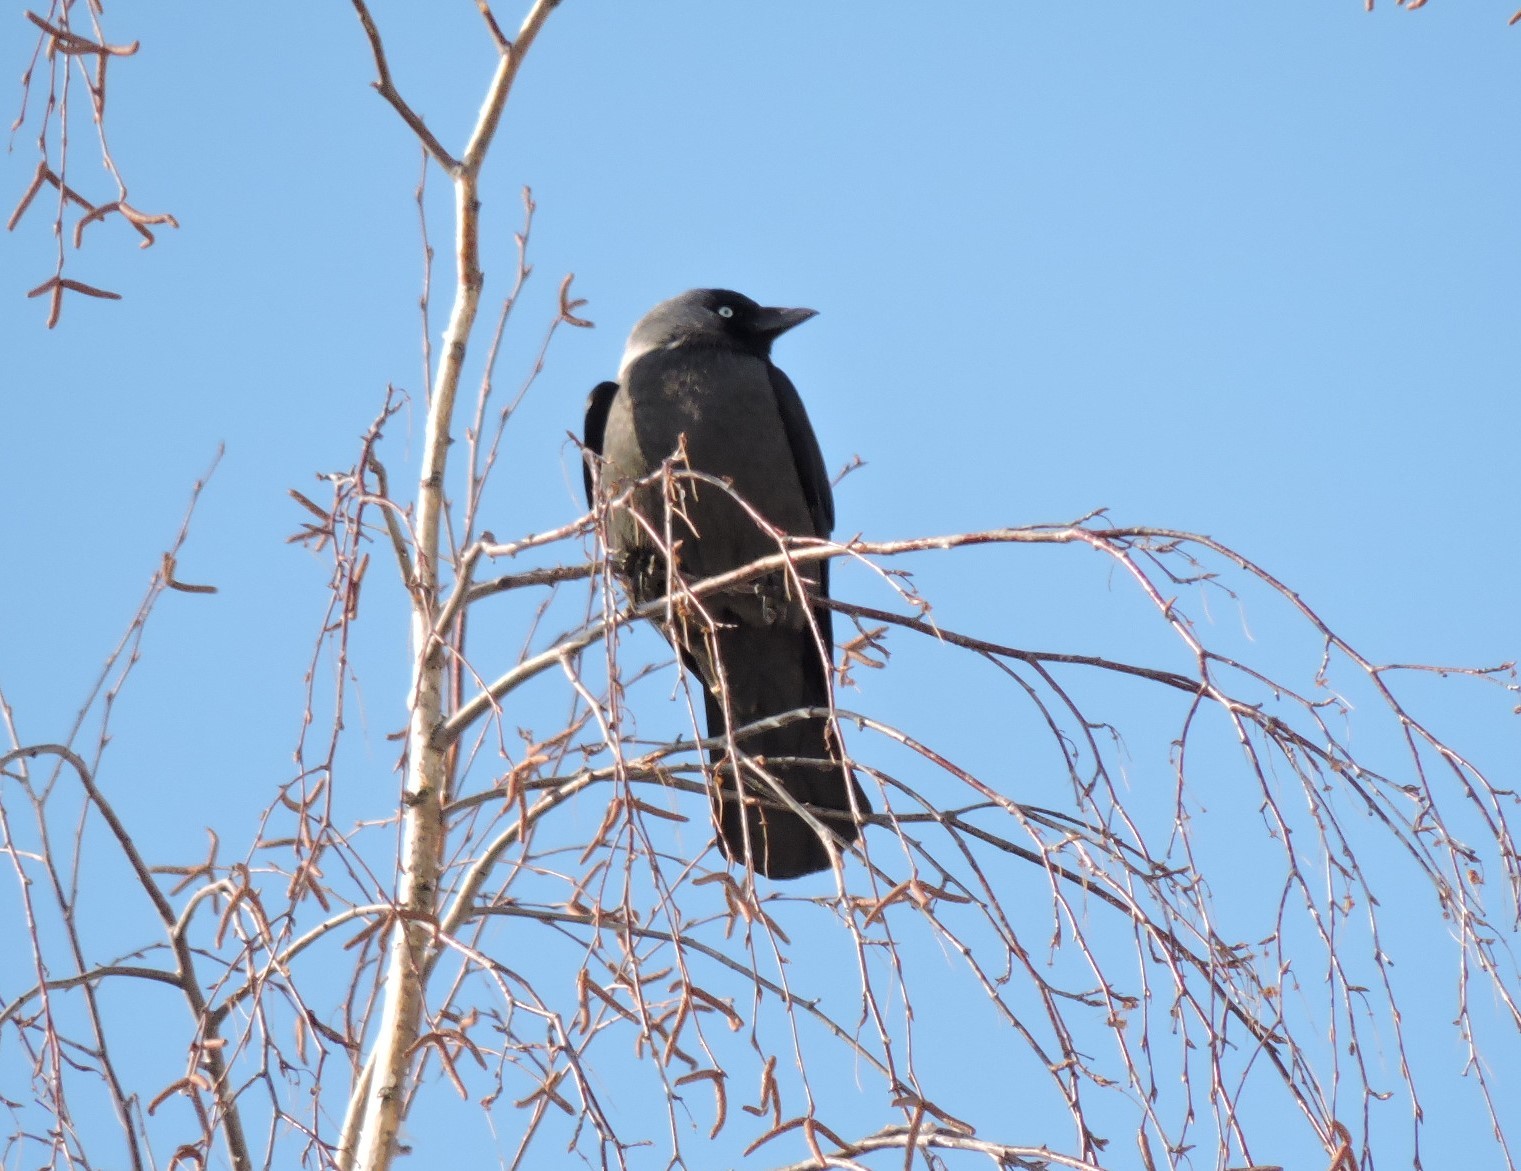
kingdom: Animalia
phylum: Chordata
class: Aves
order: Passeriformes
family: Corvidae
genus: Coloeus
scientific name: Coloeus monedula
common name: Western jackdaw
